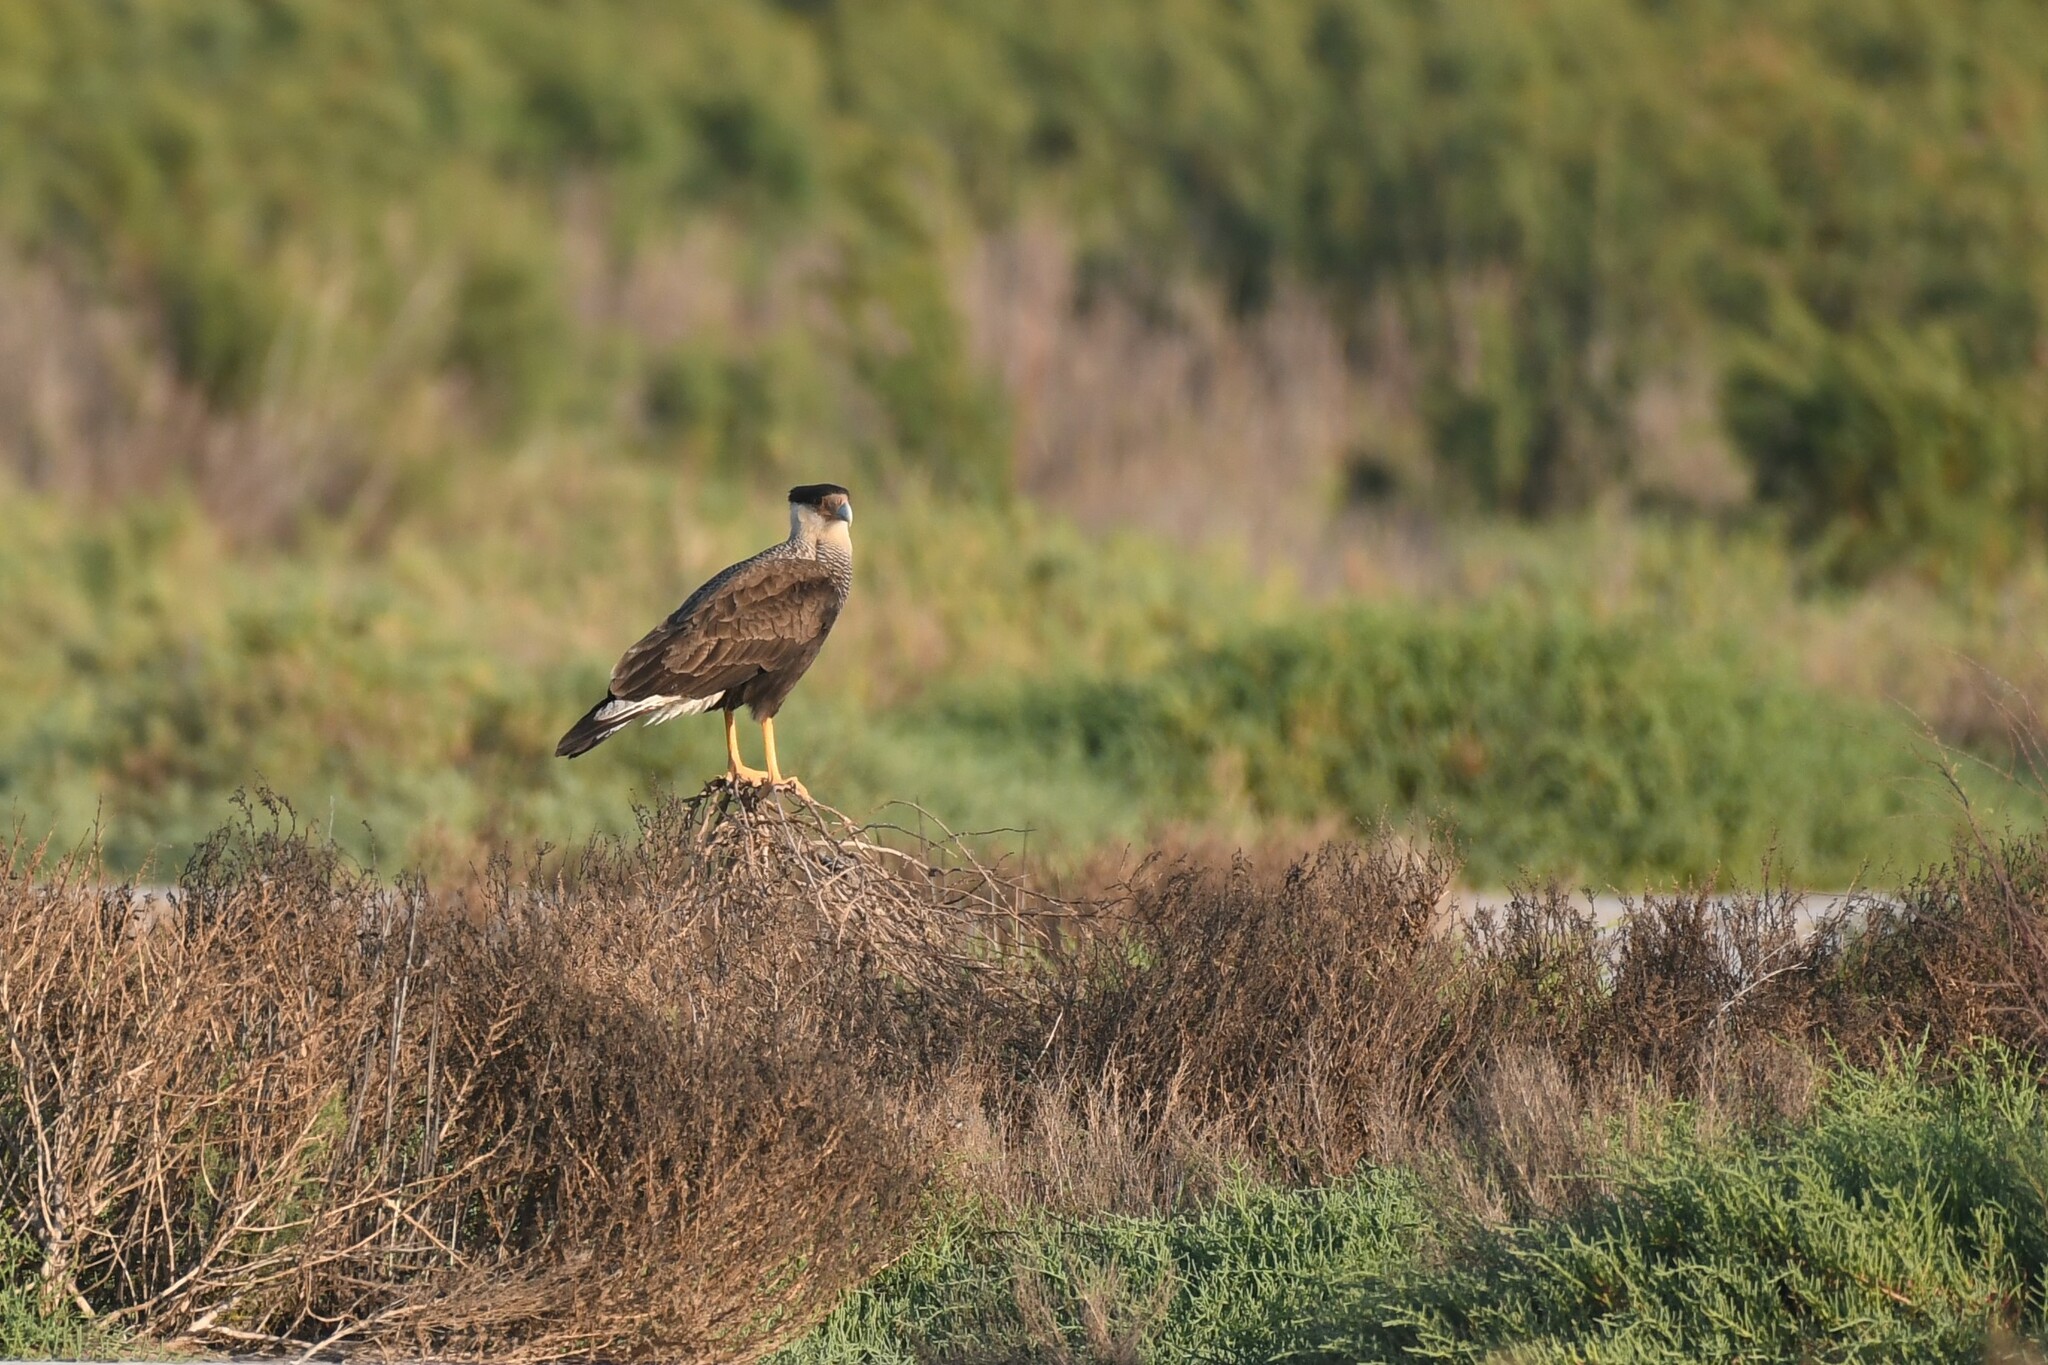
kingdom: Animalia
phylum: Chordata
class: Aves
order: Falconiformes
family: Falconidae
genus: Caracara
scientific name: Caracara plancus
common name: Southern caracara
